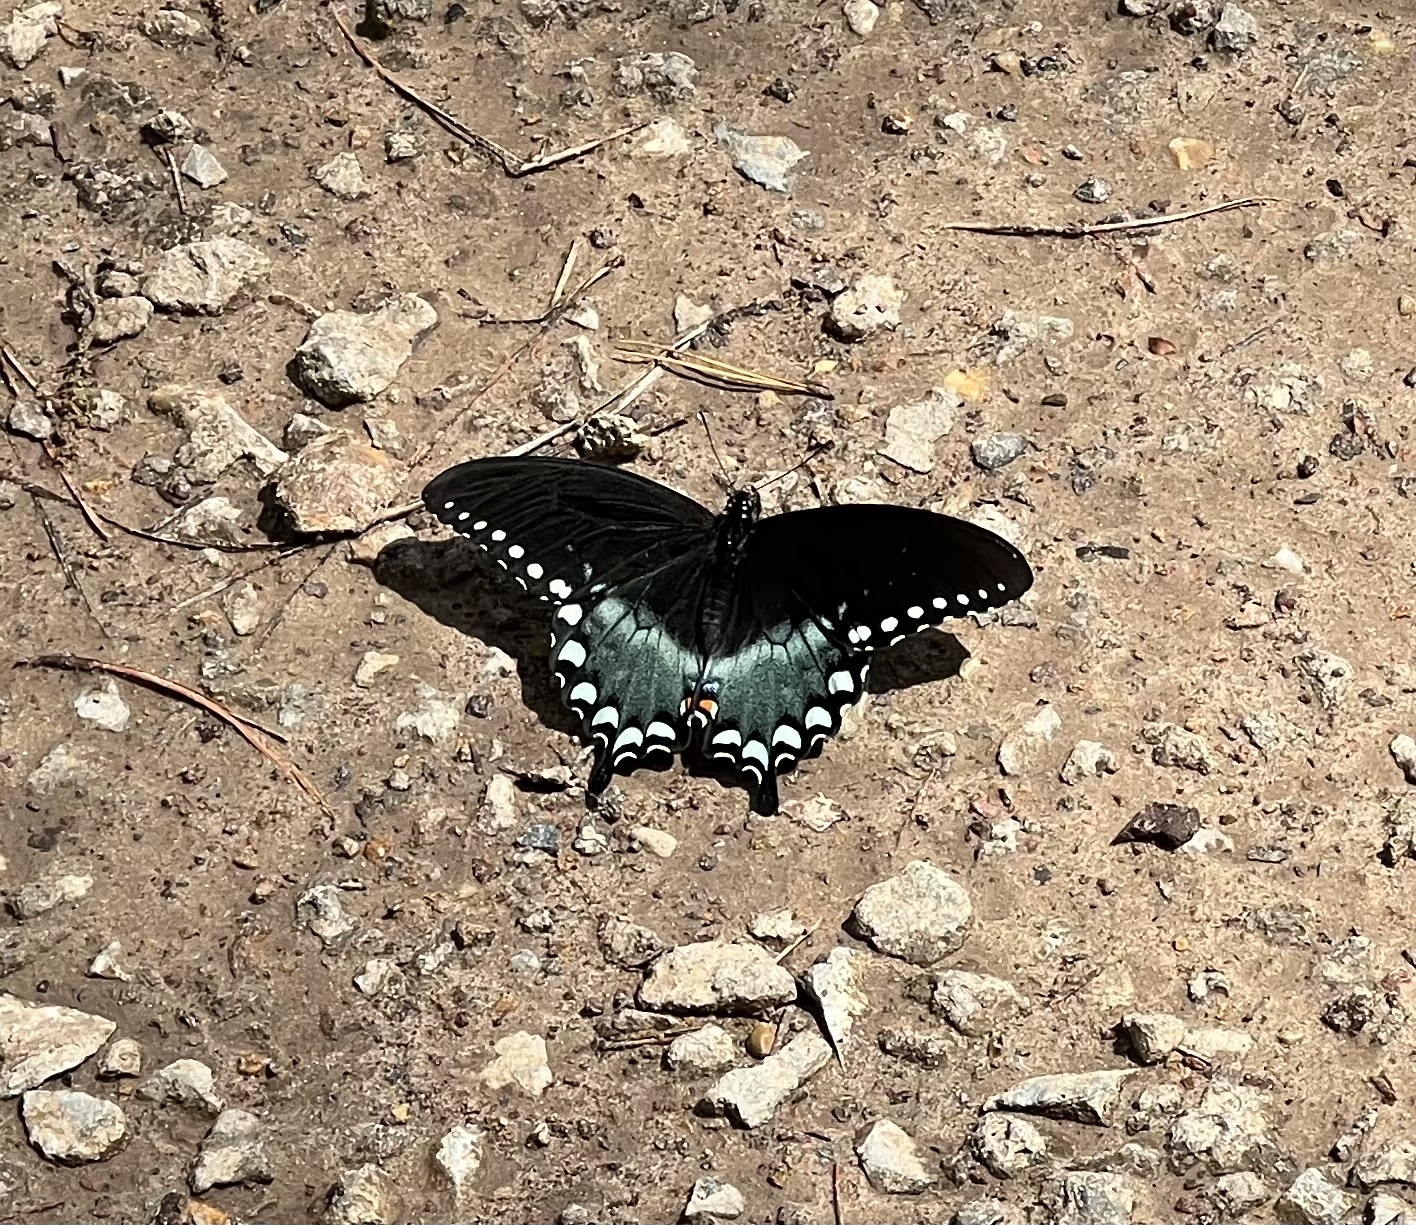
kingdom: Animalia
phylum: Arthropoda
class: Insecta
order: Lepidoptera
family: Papilionidae
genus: Papilio
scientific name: Papilio troilus
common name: Spicebush swallowtail
